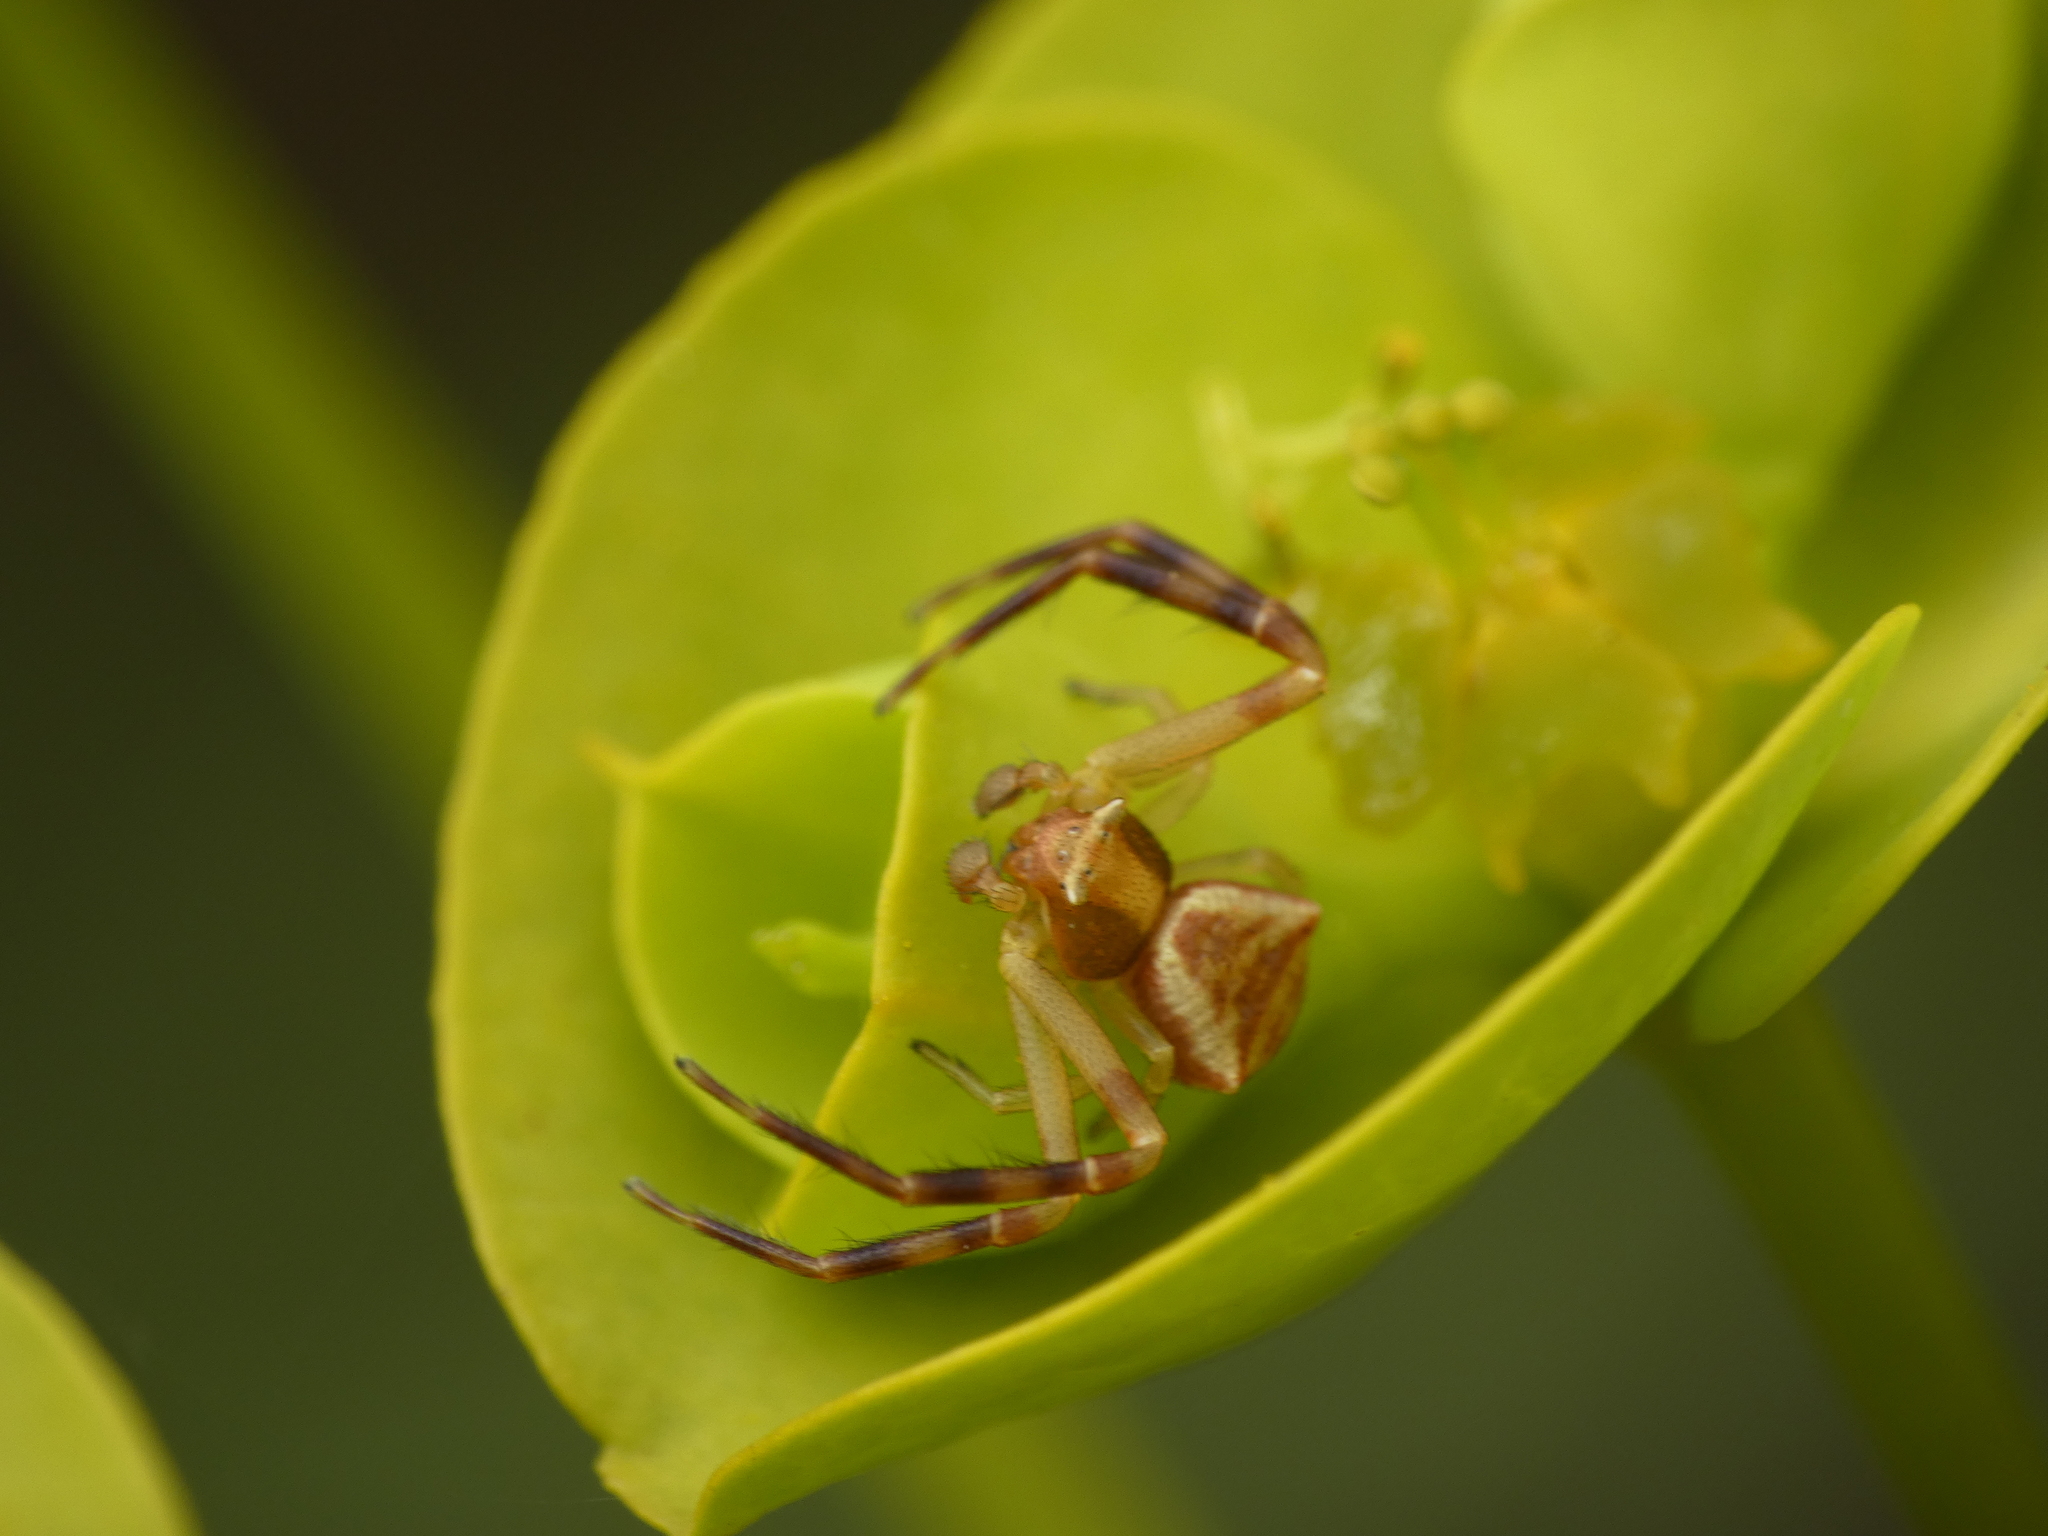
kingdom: Animalia
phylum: Arthropoda
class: Arachnida
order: Araneae
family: Thomisidae
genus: Thomisus
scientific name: Thomisus onustus
